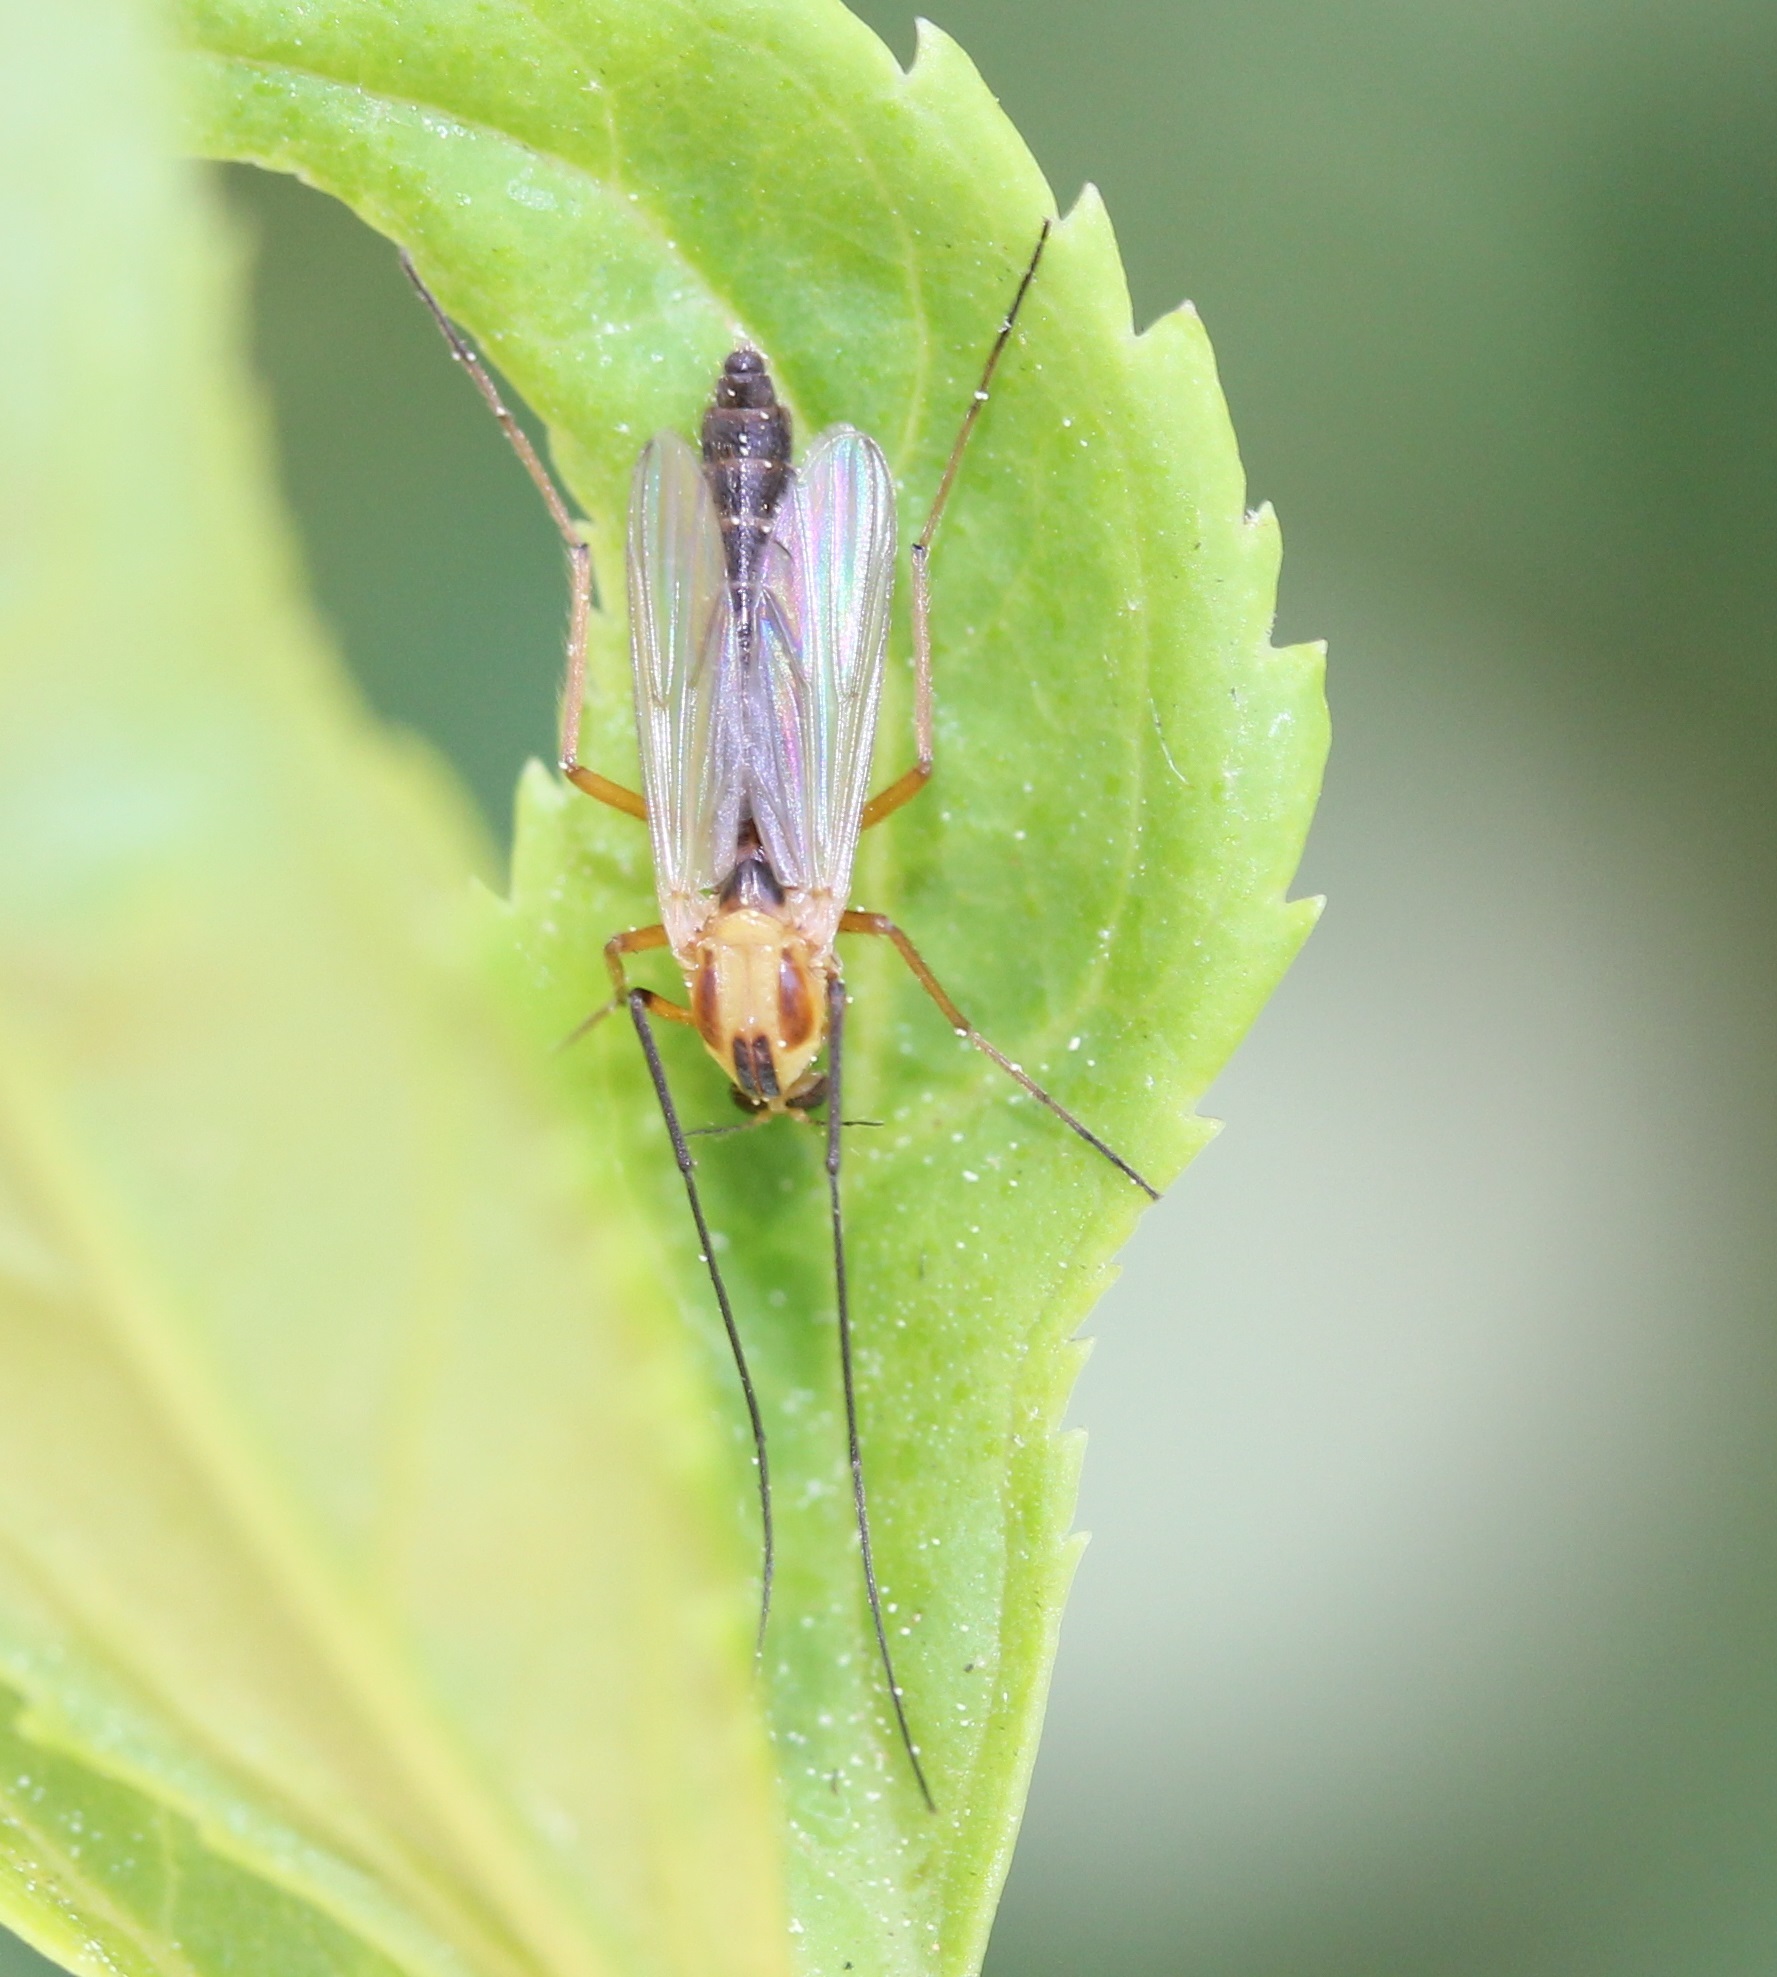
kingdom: Animalia
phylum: Arthropoda
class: Insecta
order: Diptera
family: Chironomidae
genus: Chironomus
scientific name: Chironomus ochreatus
